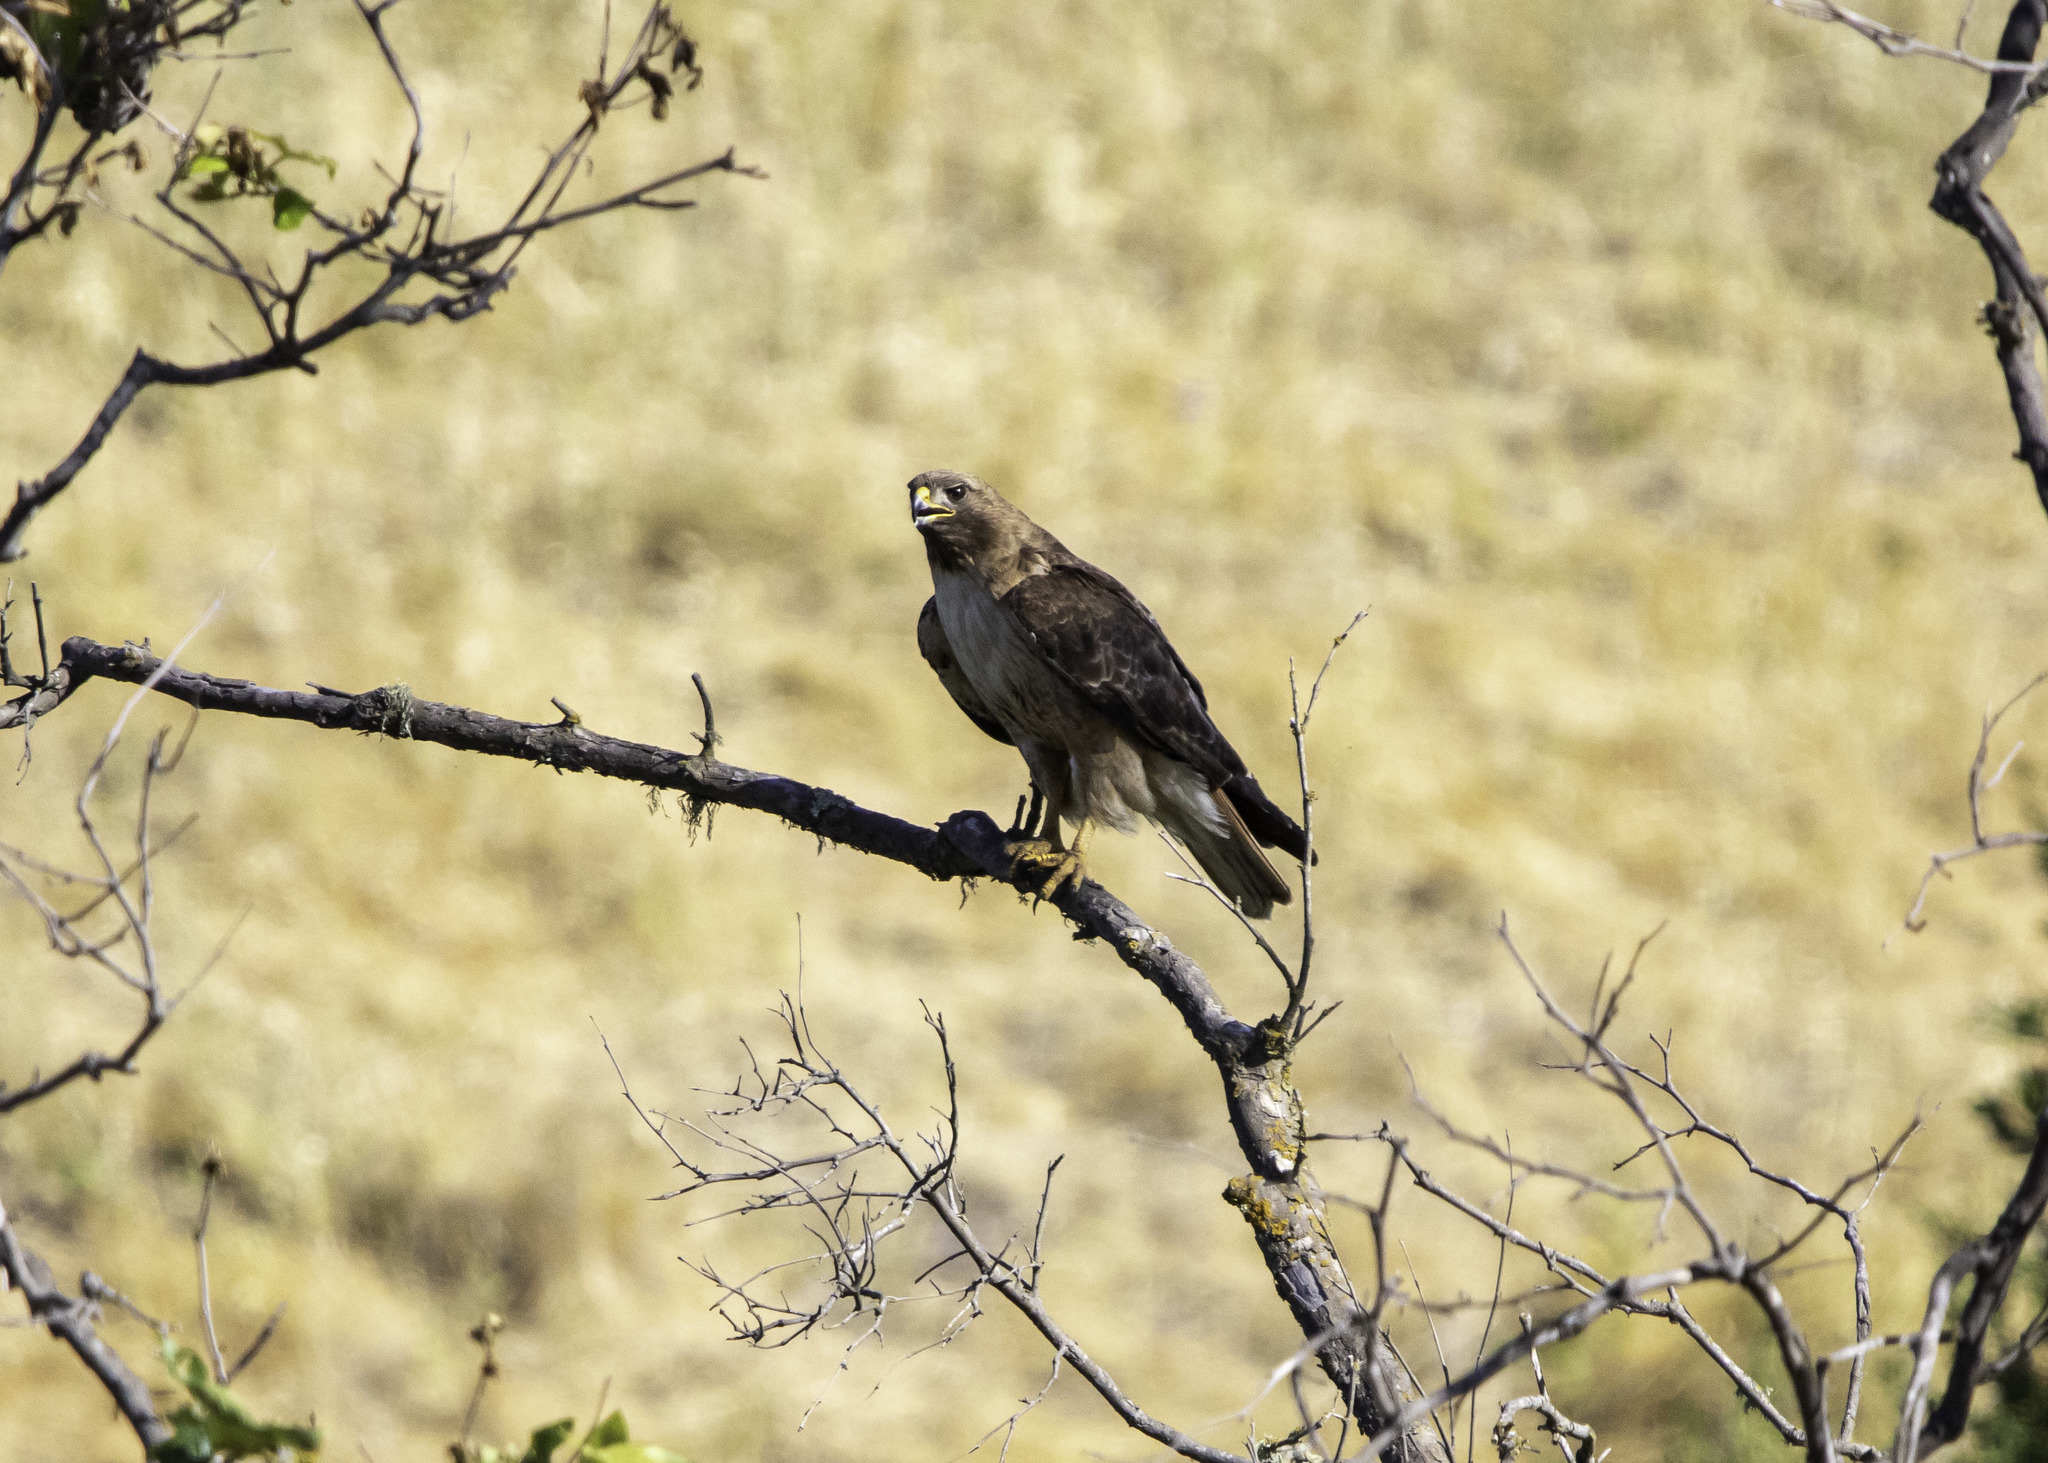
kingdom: Animalia
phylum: Chordata
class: Aves
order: Accipitriformes
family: Accipitridae
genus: Buteo
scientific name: Buteo jamaicensis
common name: Red-tailed hawk
